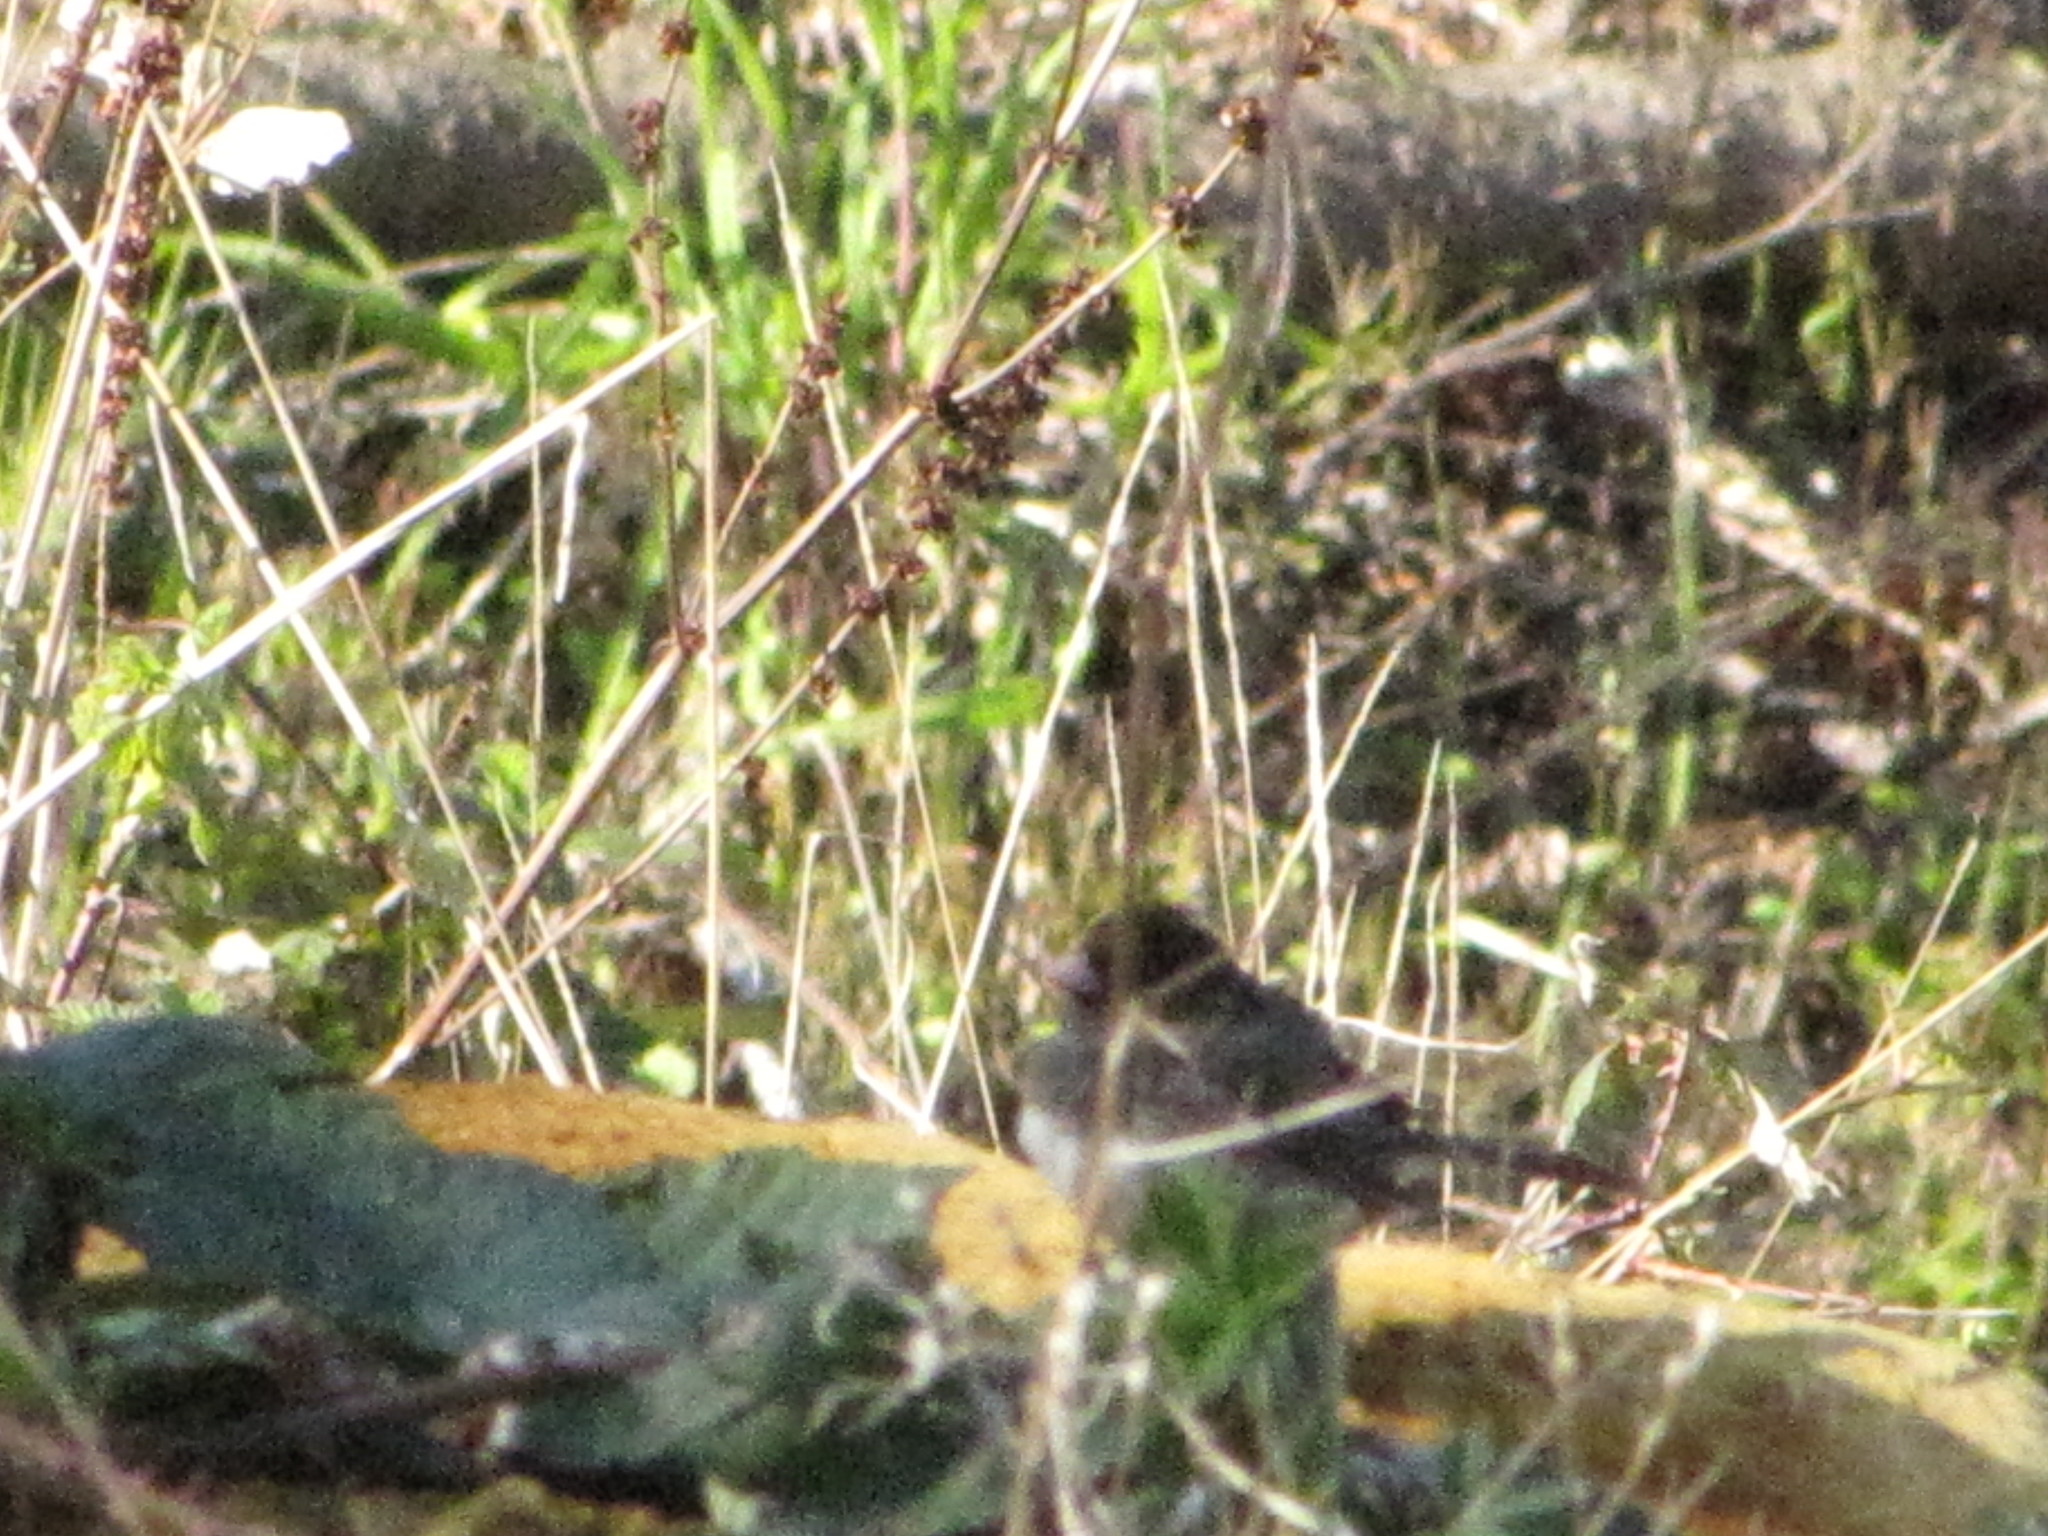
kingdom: Animalia
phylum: Chordata
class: Aves
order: Passeriformes
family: Passerellidae
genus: Junco
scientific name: Junco hyemalis
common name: Dark-eyed junco
